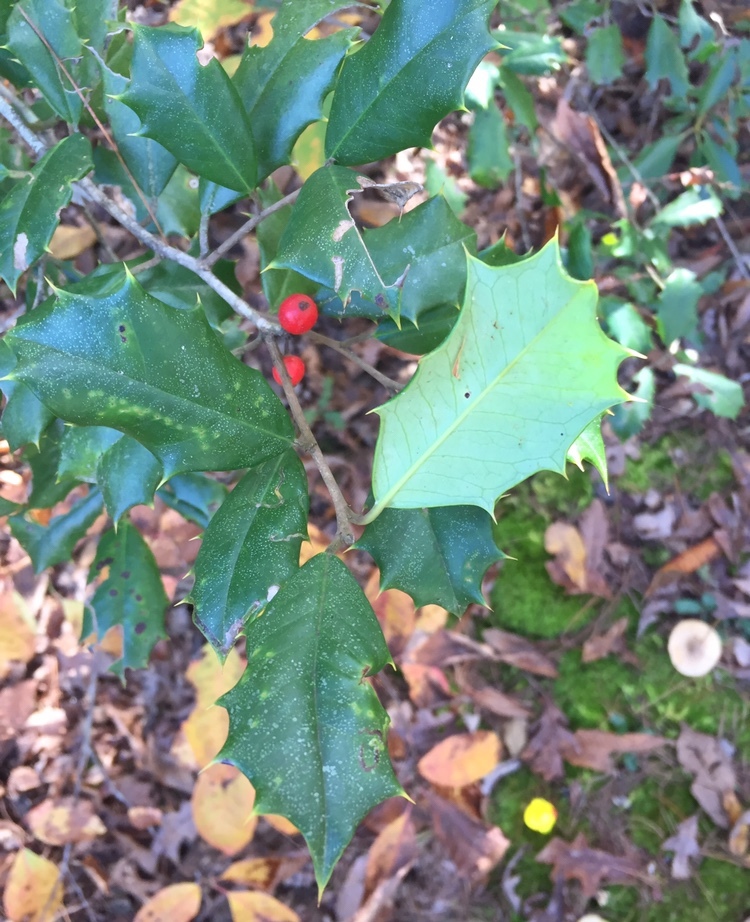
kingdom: Plantae
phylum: Tracheophyta
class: Magnoliopsida
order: Aquifoliales
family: Aquifoliaceae
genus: Ilex
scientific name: Ilex opaca
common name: American holly
